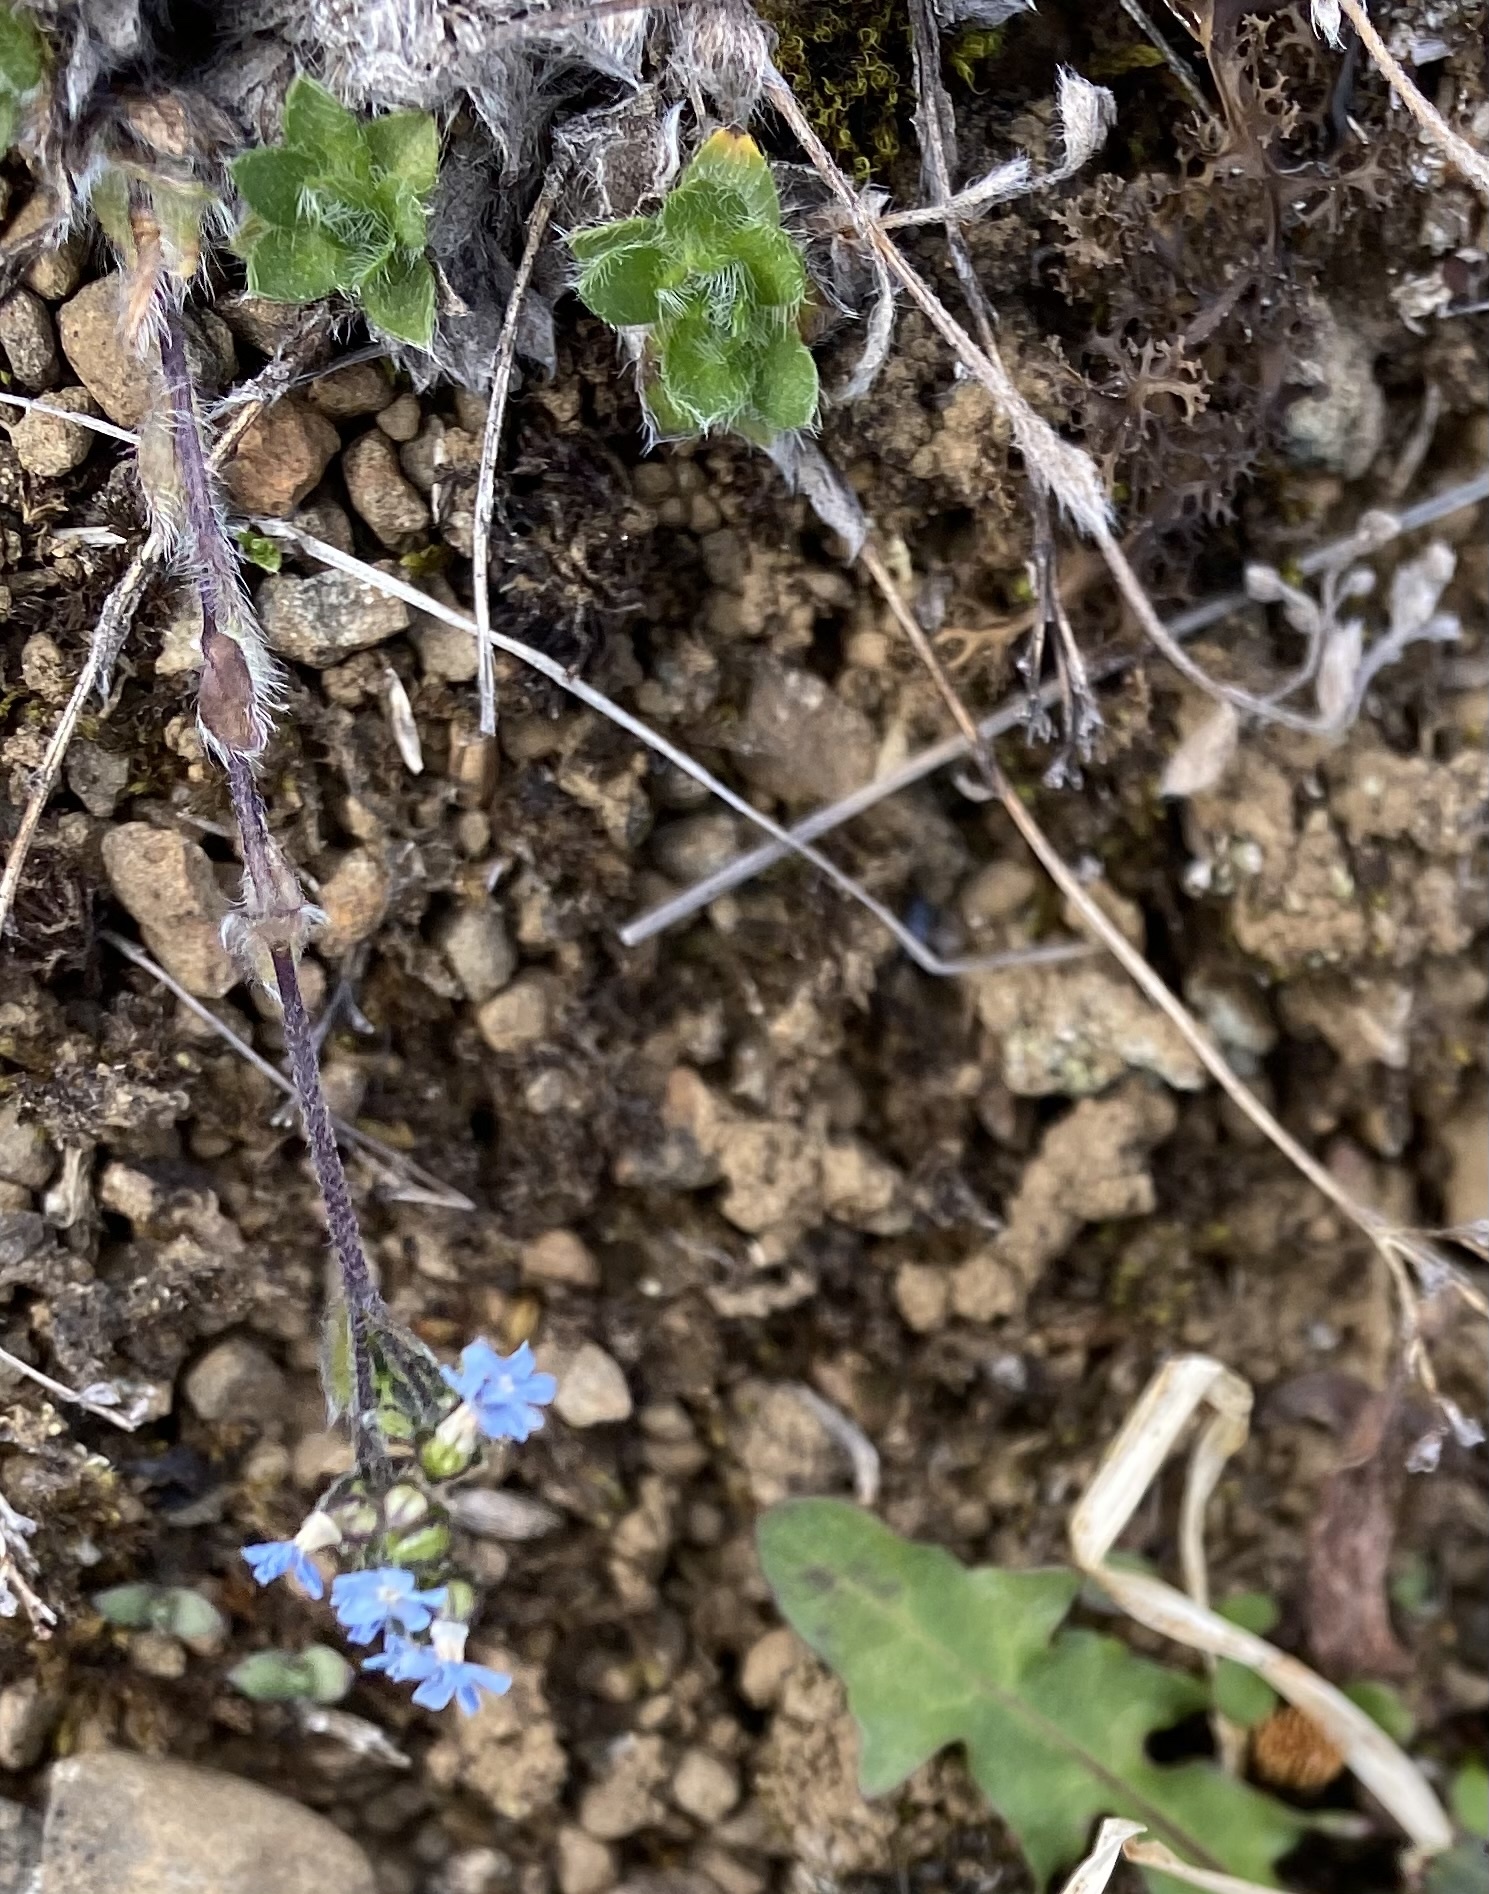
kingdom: Plantae
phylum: Tracheophyta
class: Magnoliopsida
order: Boraginales
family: Boraginaceae
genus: Eritrichium
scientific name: Eritrichium villosum
